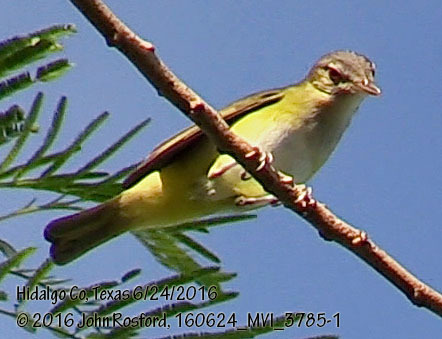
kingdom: Animalia
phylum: Chordata
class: Aves
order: Passeriformes
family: Vireonidae
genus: Vireo
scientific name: Vireo flavoviridis
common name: Yellow-green vireo
